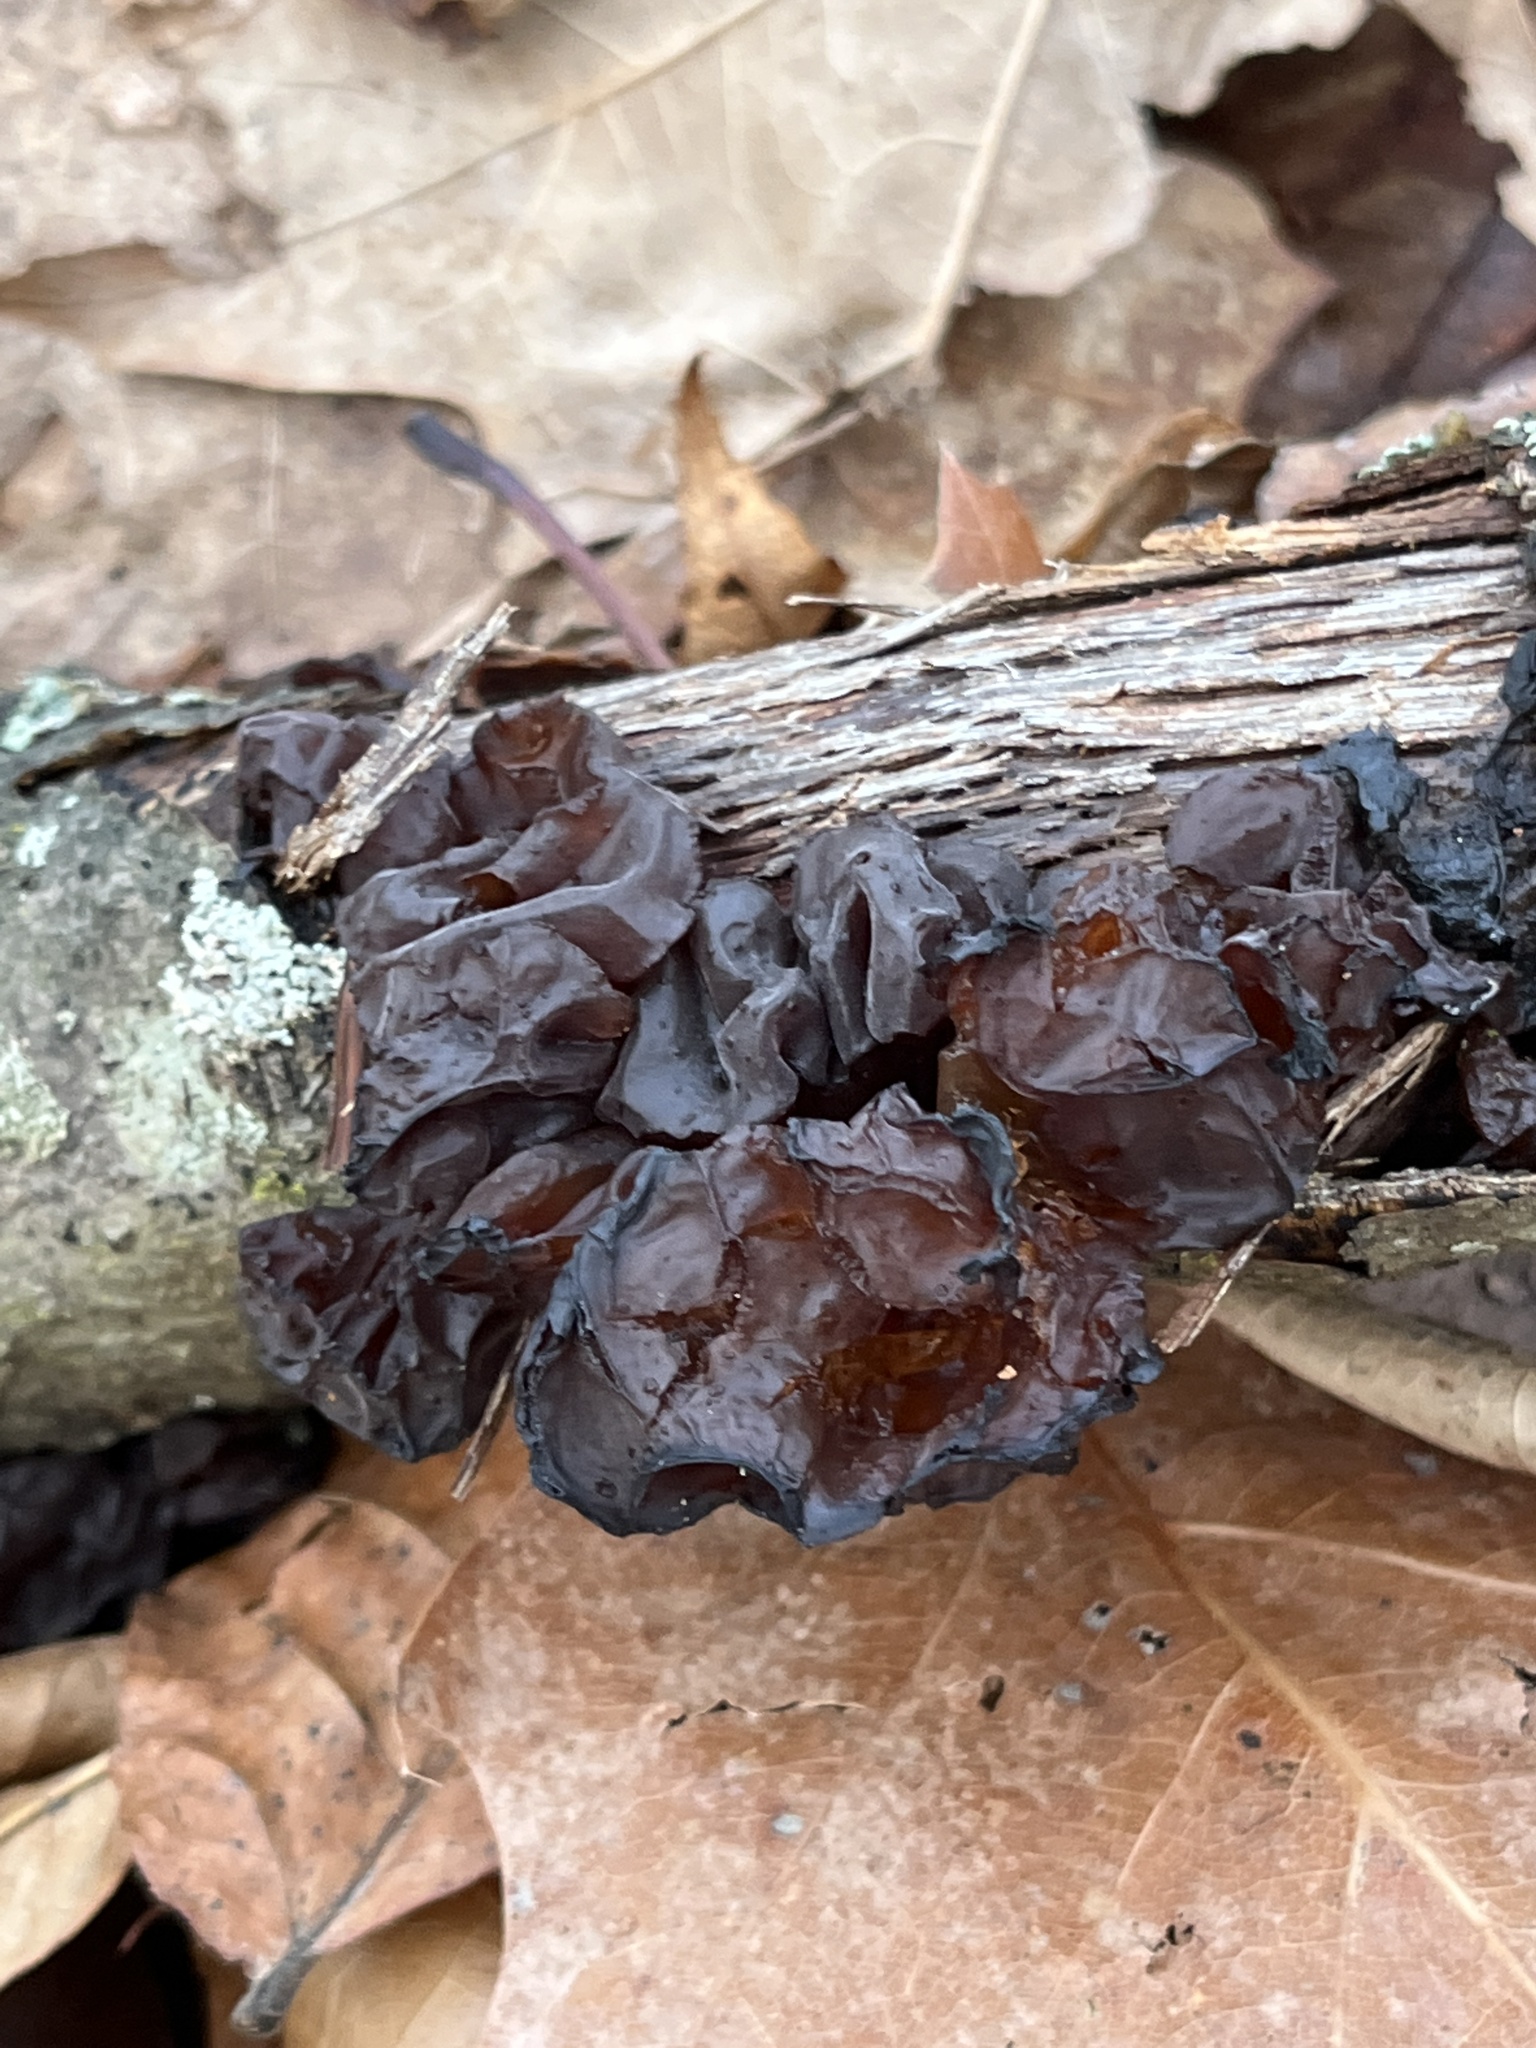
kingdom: Fungi
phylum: Basidiomycota
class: Agaricomycetes
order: Auriculariales
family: Auriculariaceae
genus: Exidia
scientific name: Exidia
